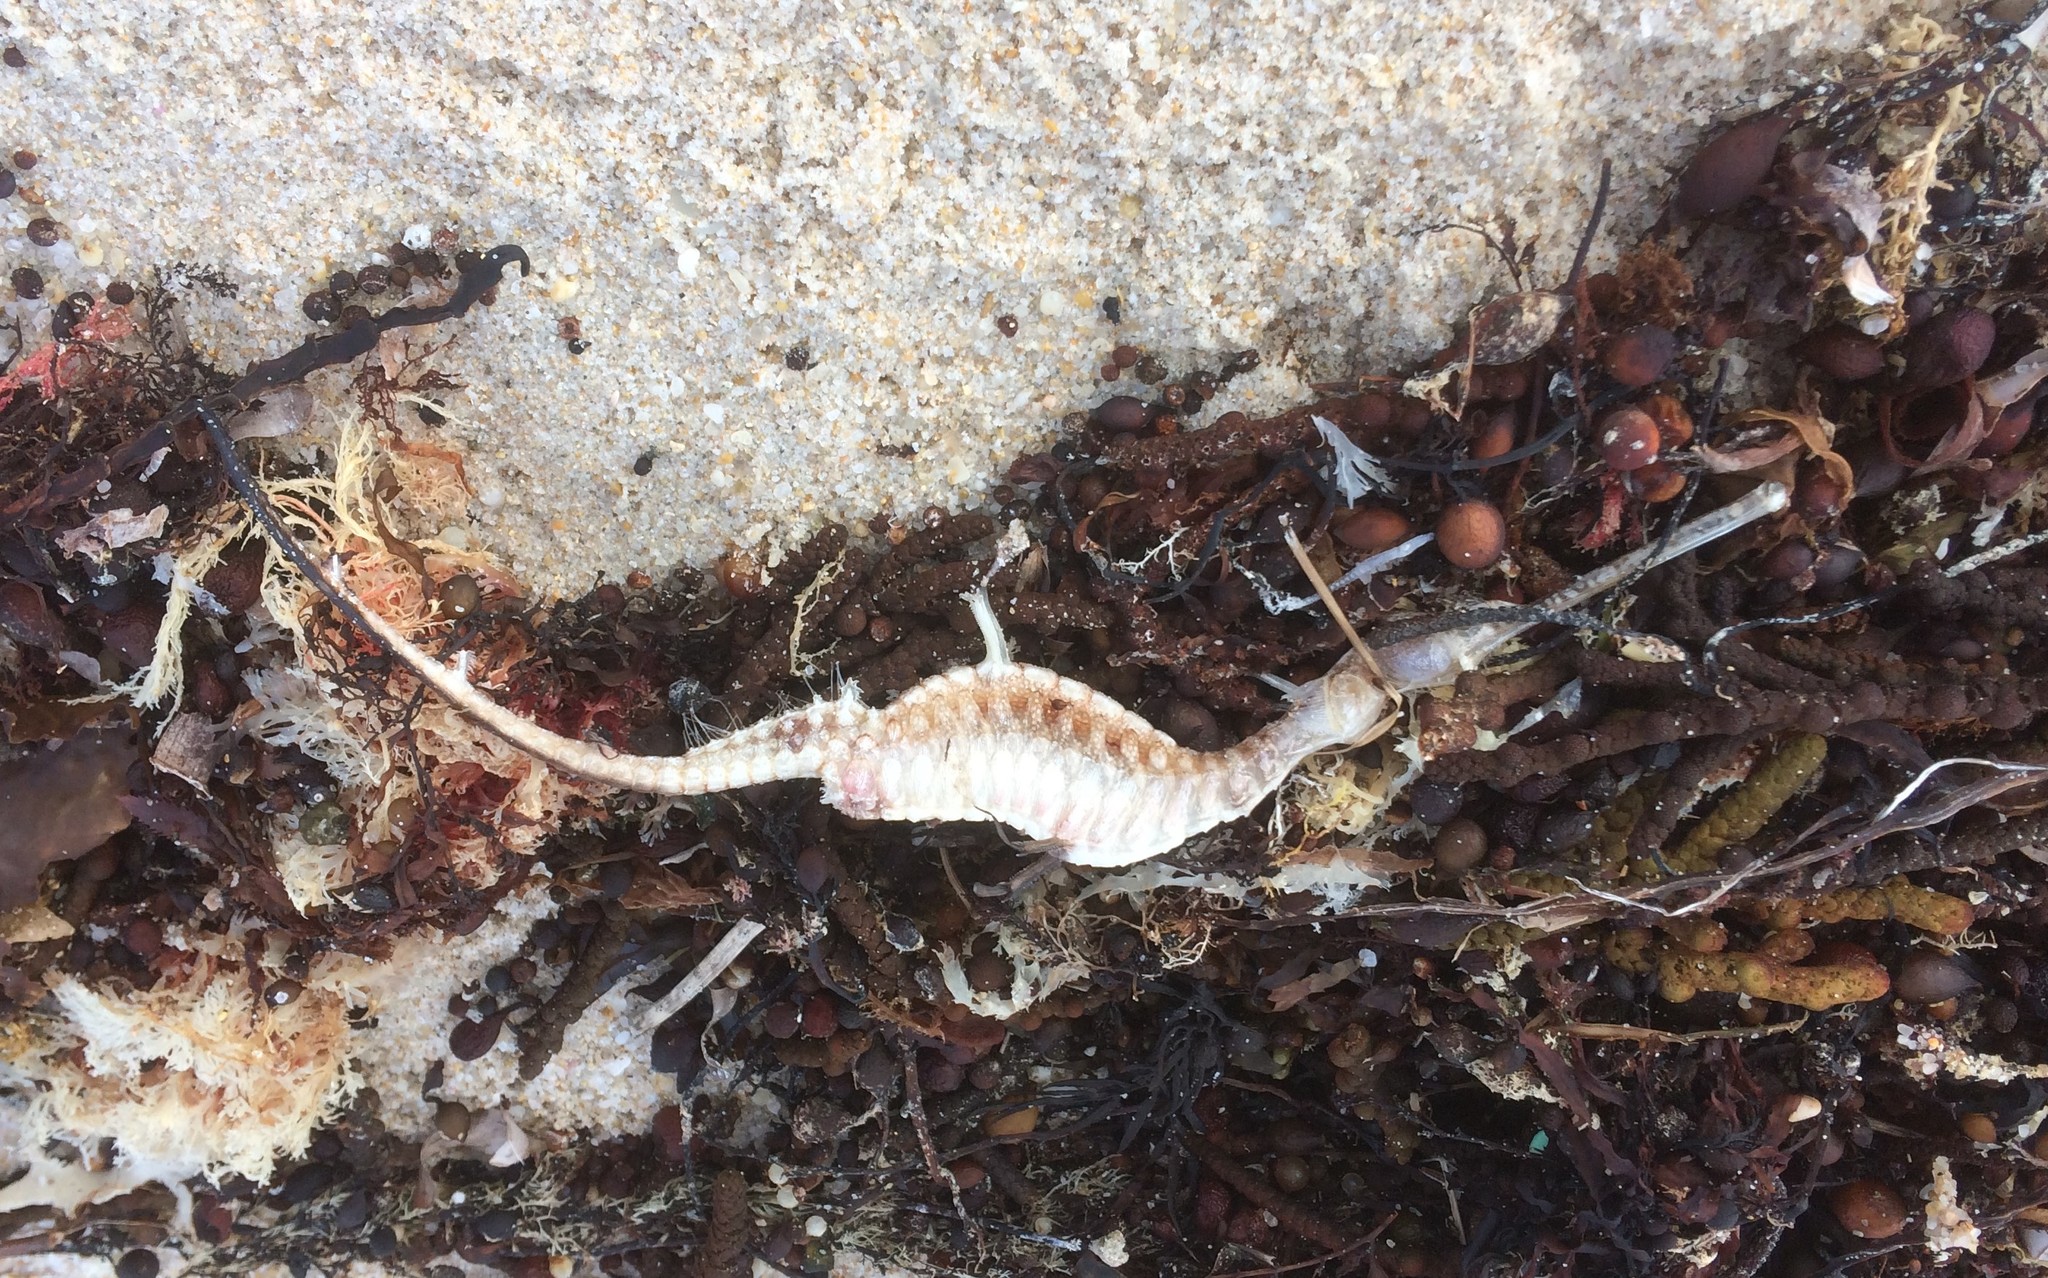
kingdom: Animalia
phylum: Chordata
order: Syngnathiformes
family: Syngnathidae
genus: Phyllopteryx
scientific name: Phyllopteryx taeniolatus
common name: Common seadragon
